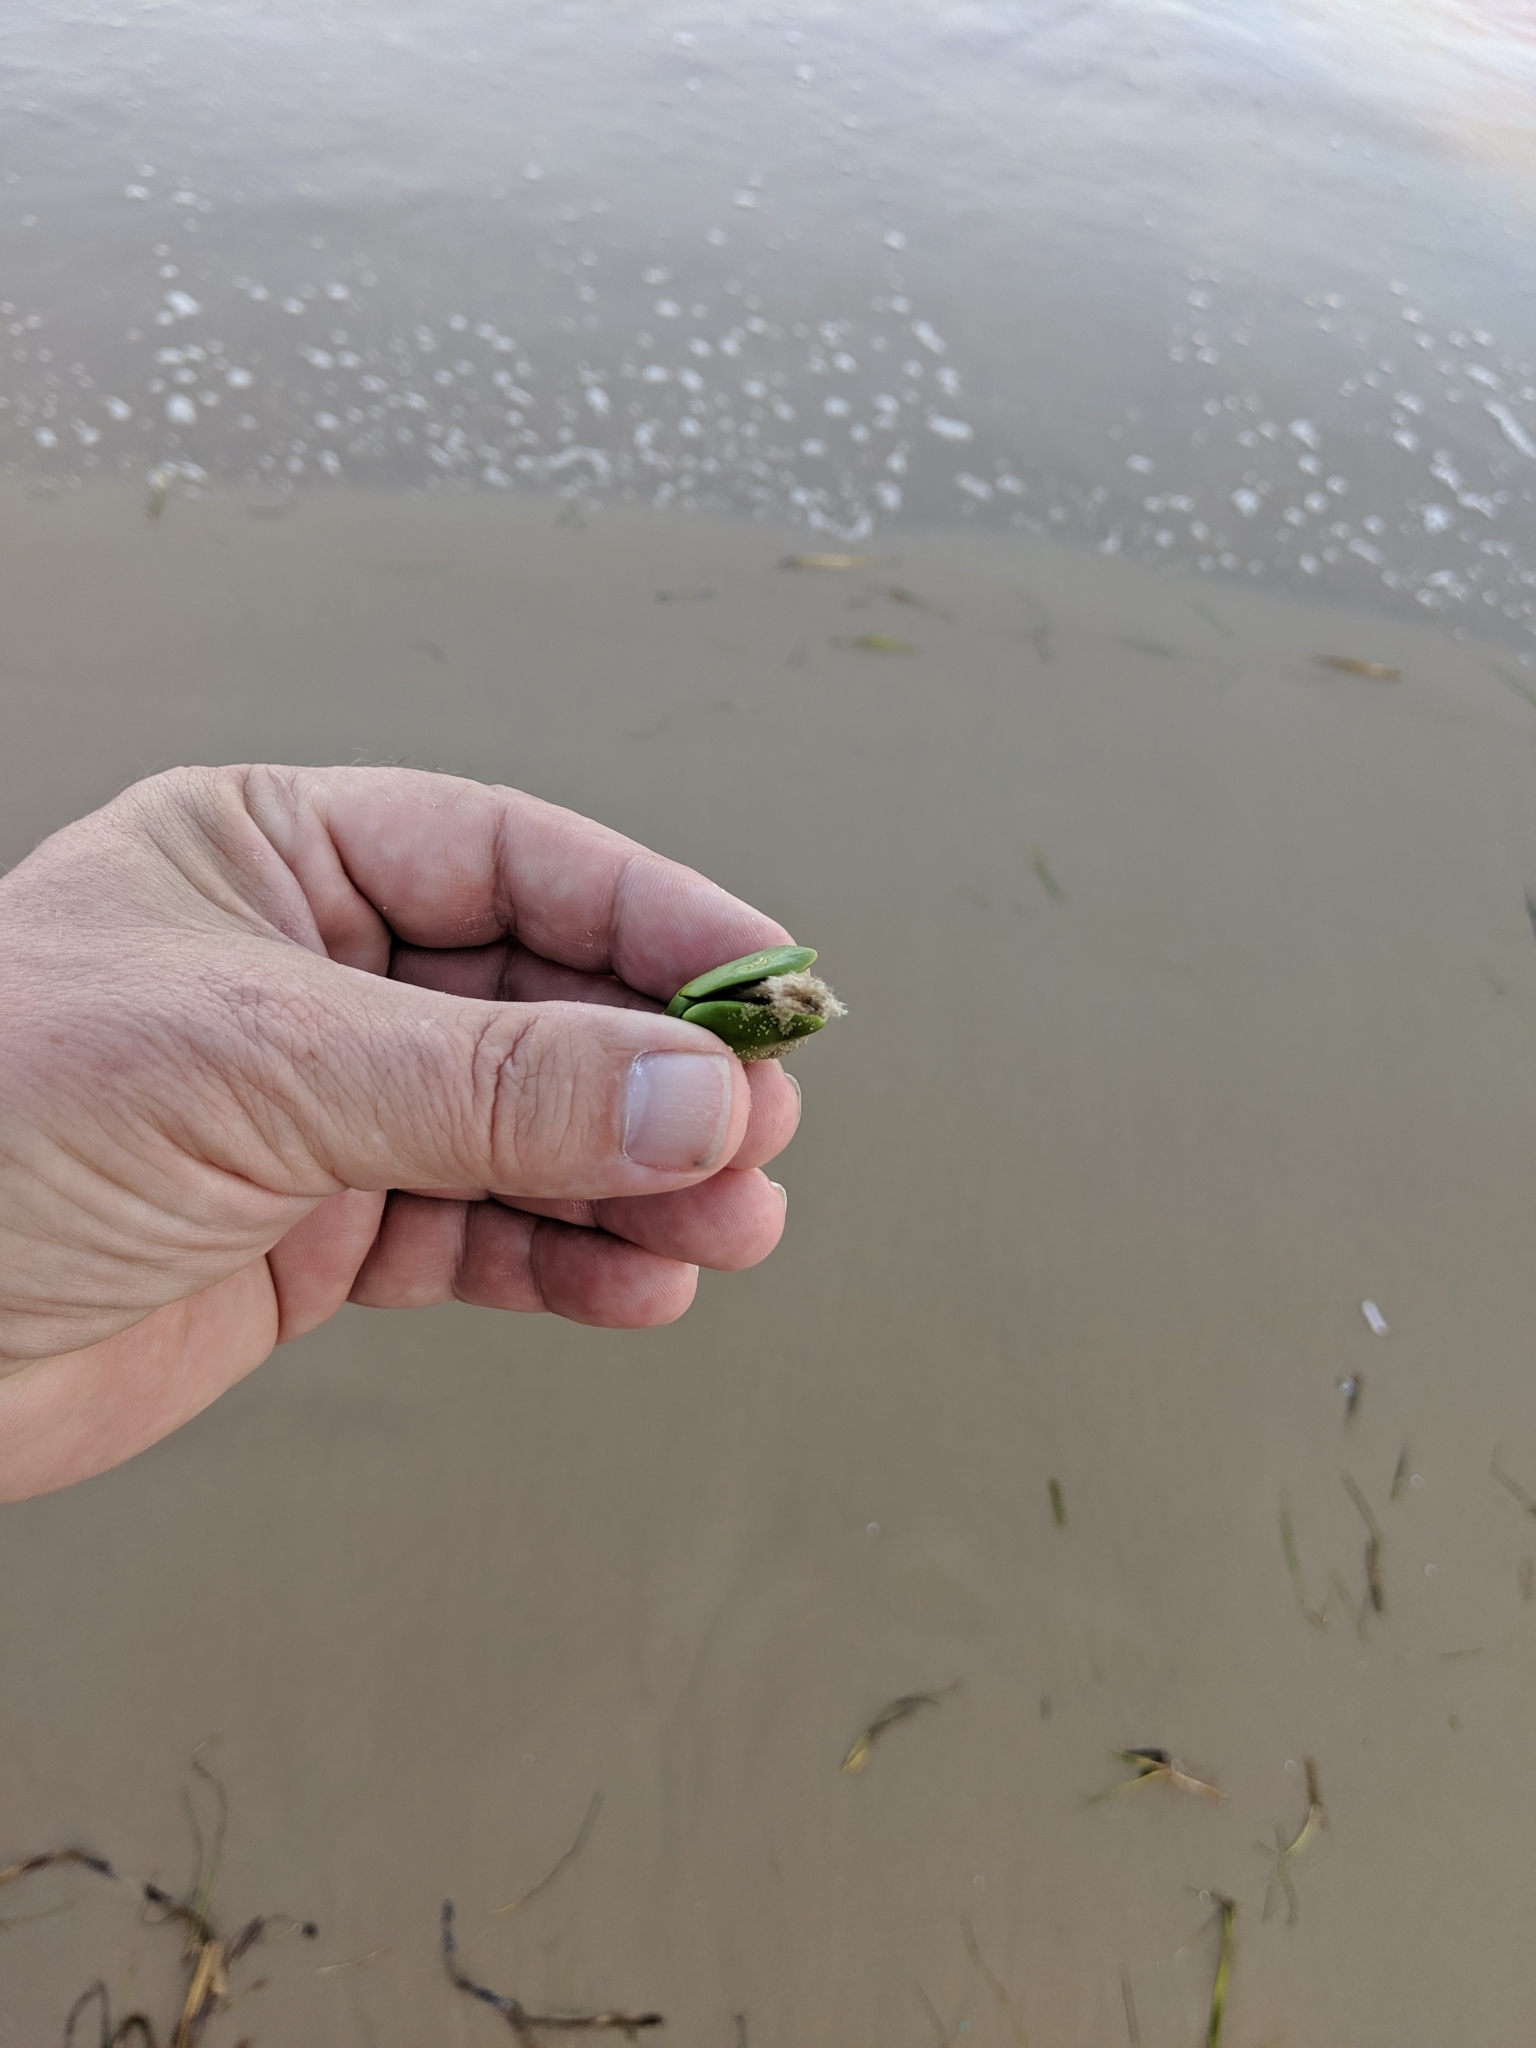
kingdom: Plantae
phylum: Tracheophyta
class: Magnoliopsida
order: Lamiales
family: Acanthaceae
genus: Avicennia
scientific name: Avicennia germinans
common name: Black mangrove
